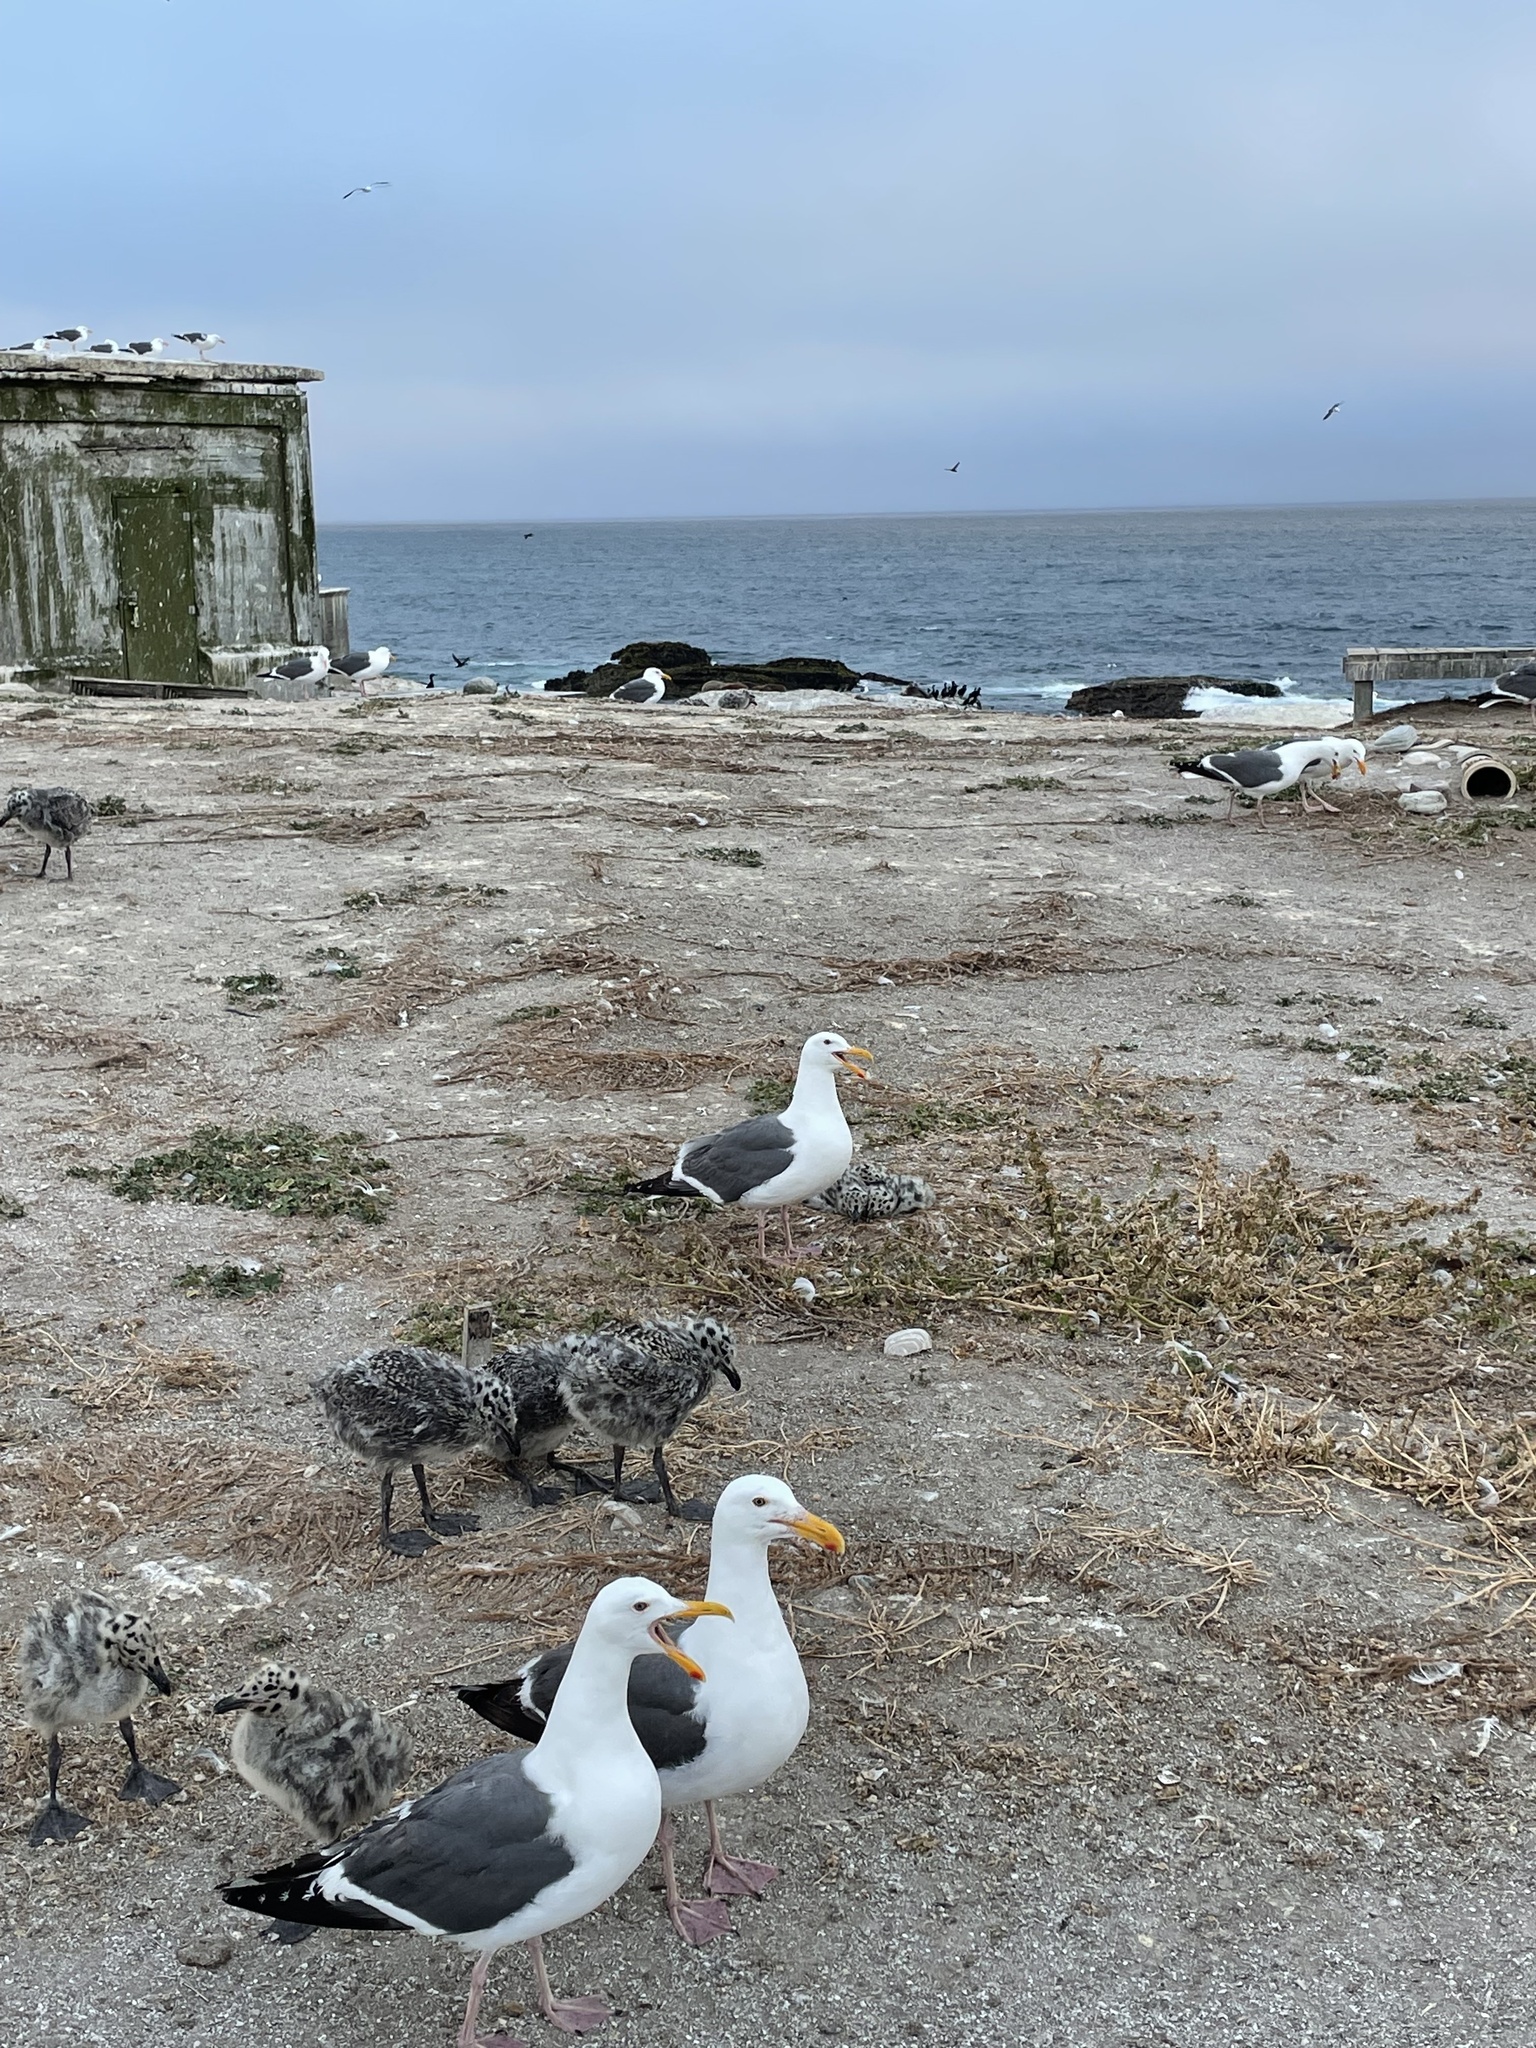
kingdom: Animalia
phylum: Chordata
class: Aves
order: Charadriiformes
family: Laridae
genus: Larus
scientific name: Larus occidentalis
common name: Western gull
